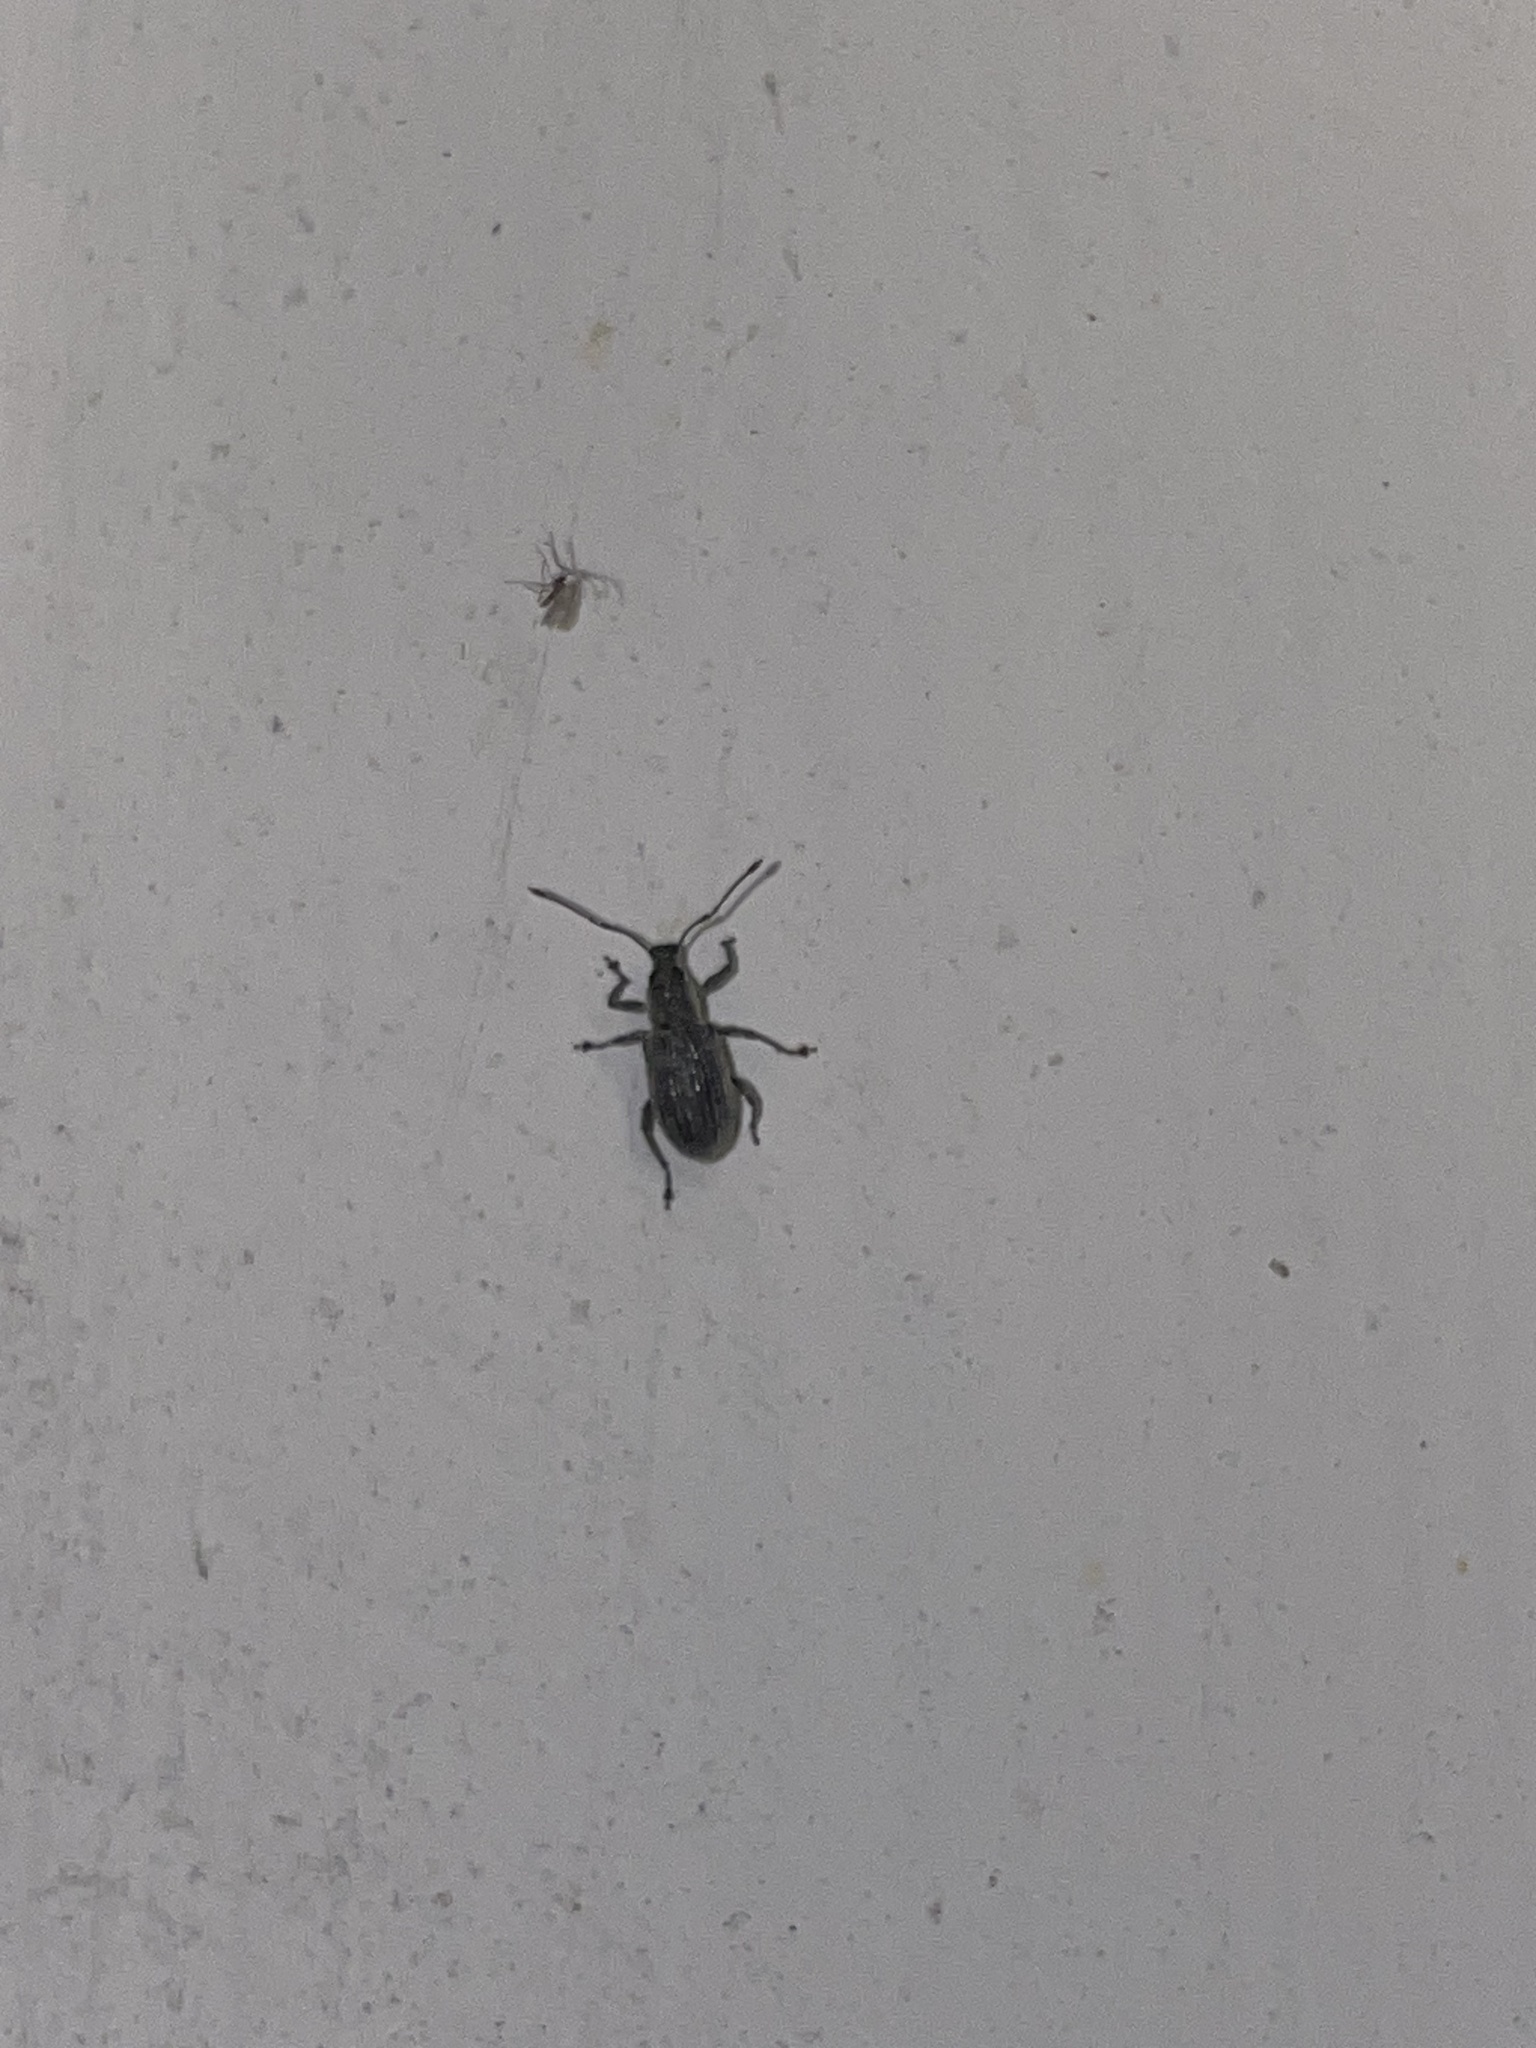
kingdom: Animalia
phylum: Arthropoda
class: Insecta
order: Coleoptera
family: Curculionidae
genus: Cyrtepistomus
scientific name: Cyrtepistomus castaneus
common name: Weevil
